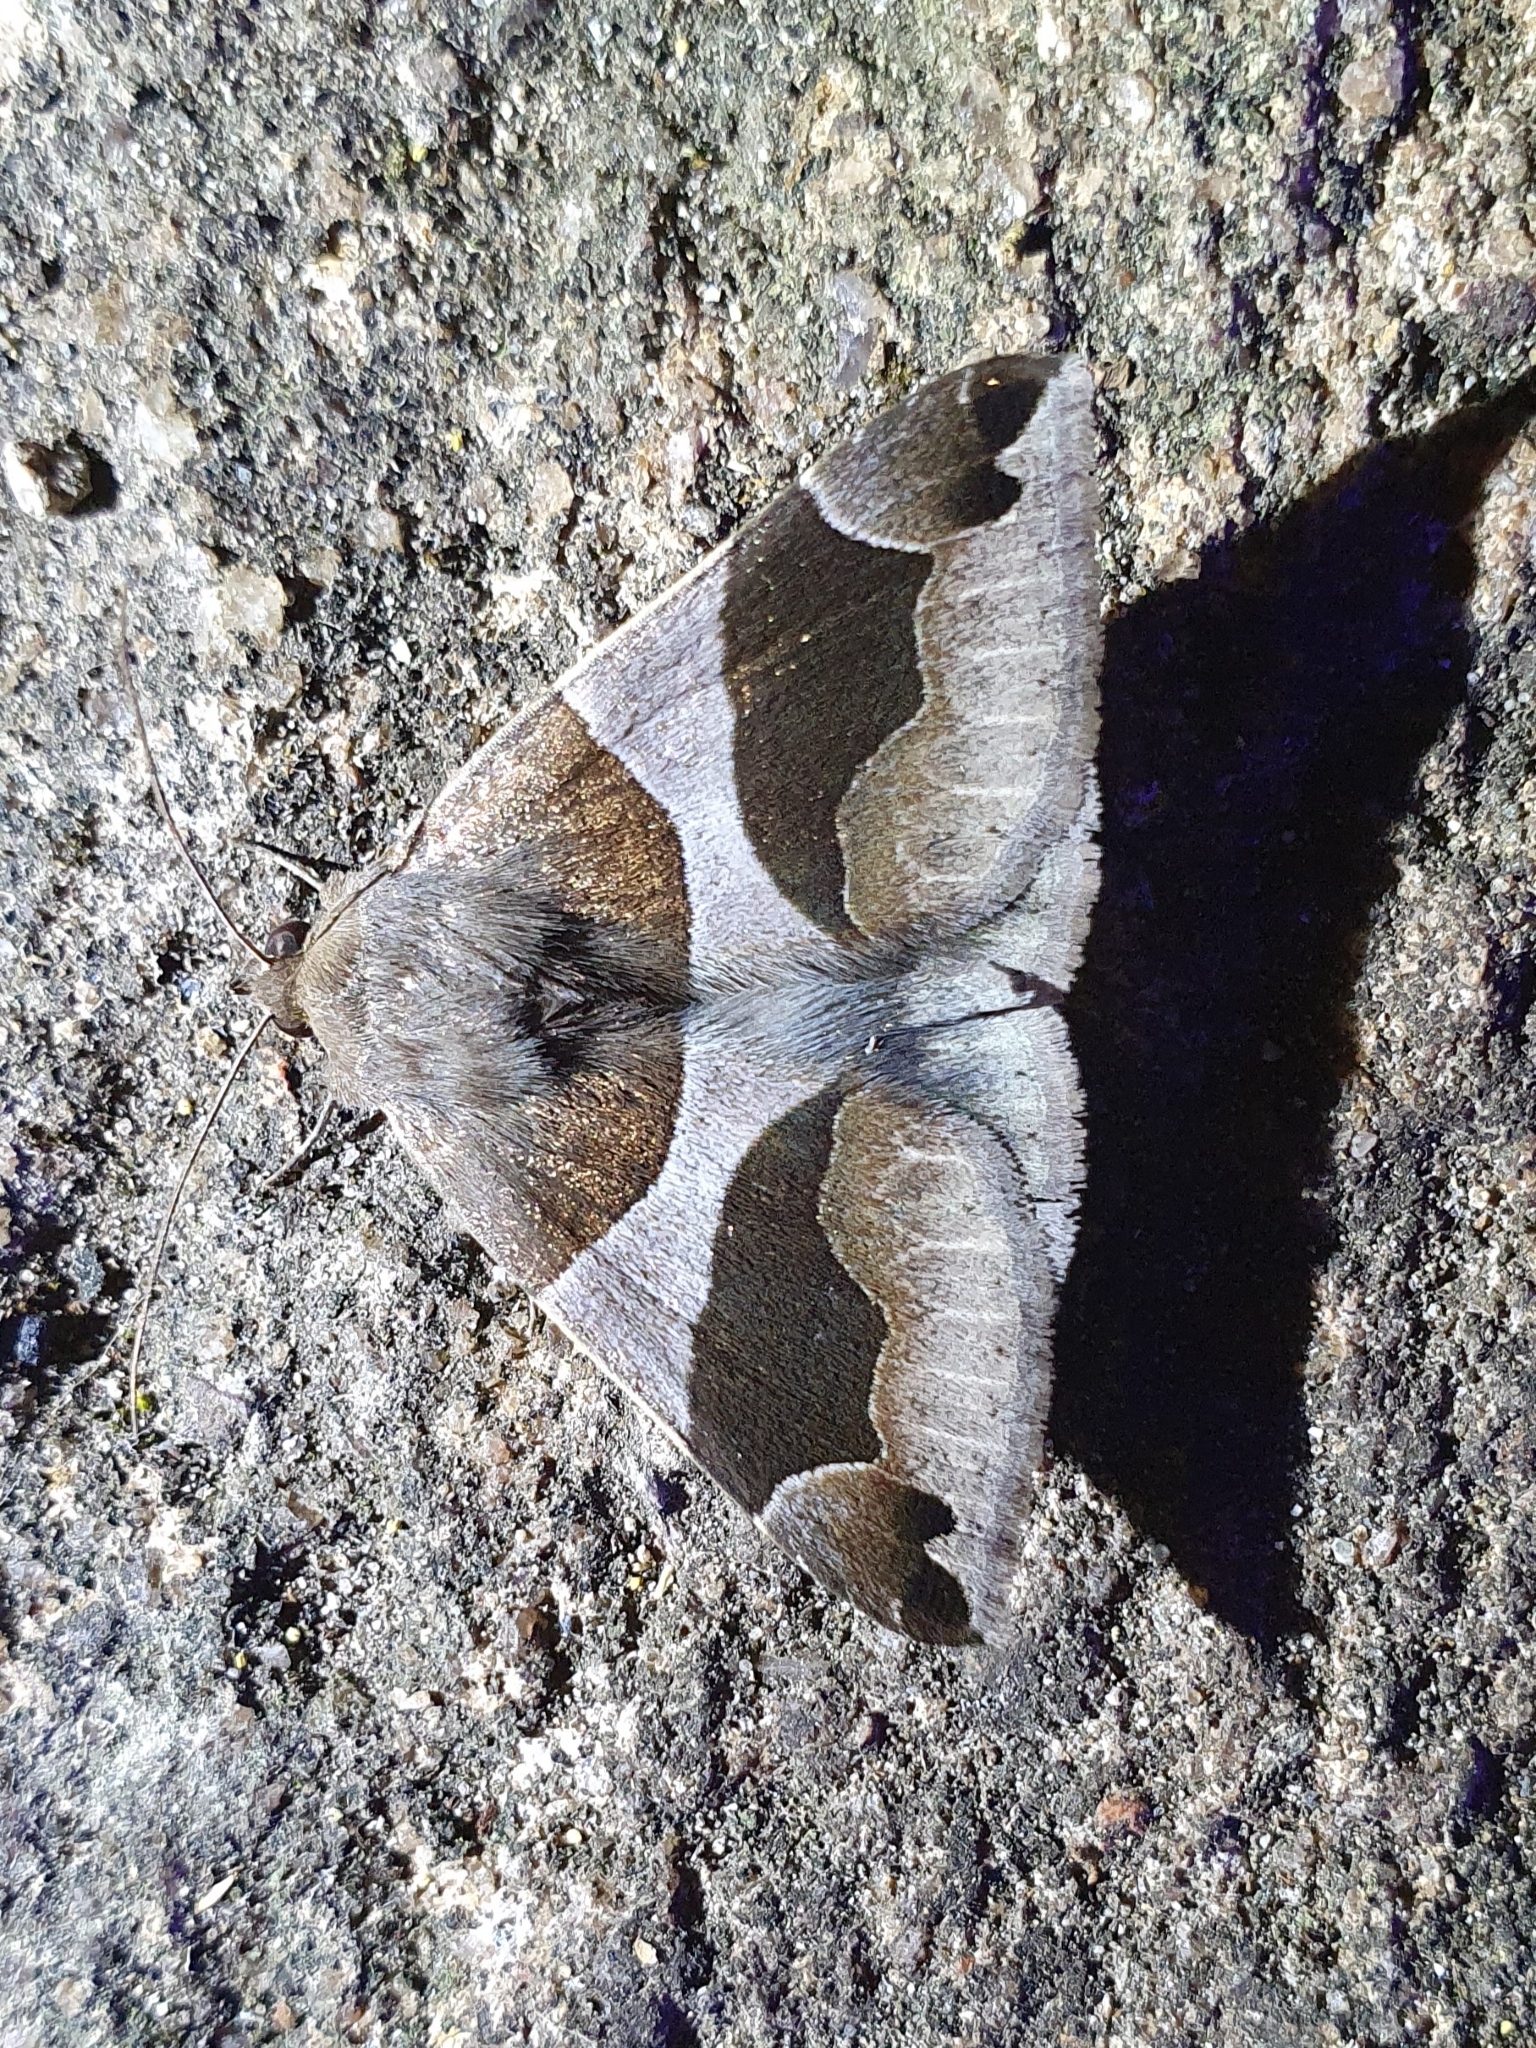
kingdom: Animalia
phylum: Arthropoda
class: Insecta
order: Lepidoptera
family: Erebidae
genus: Dysgonia
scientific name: Dysgonia algira
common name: Passenger
